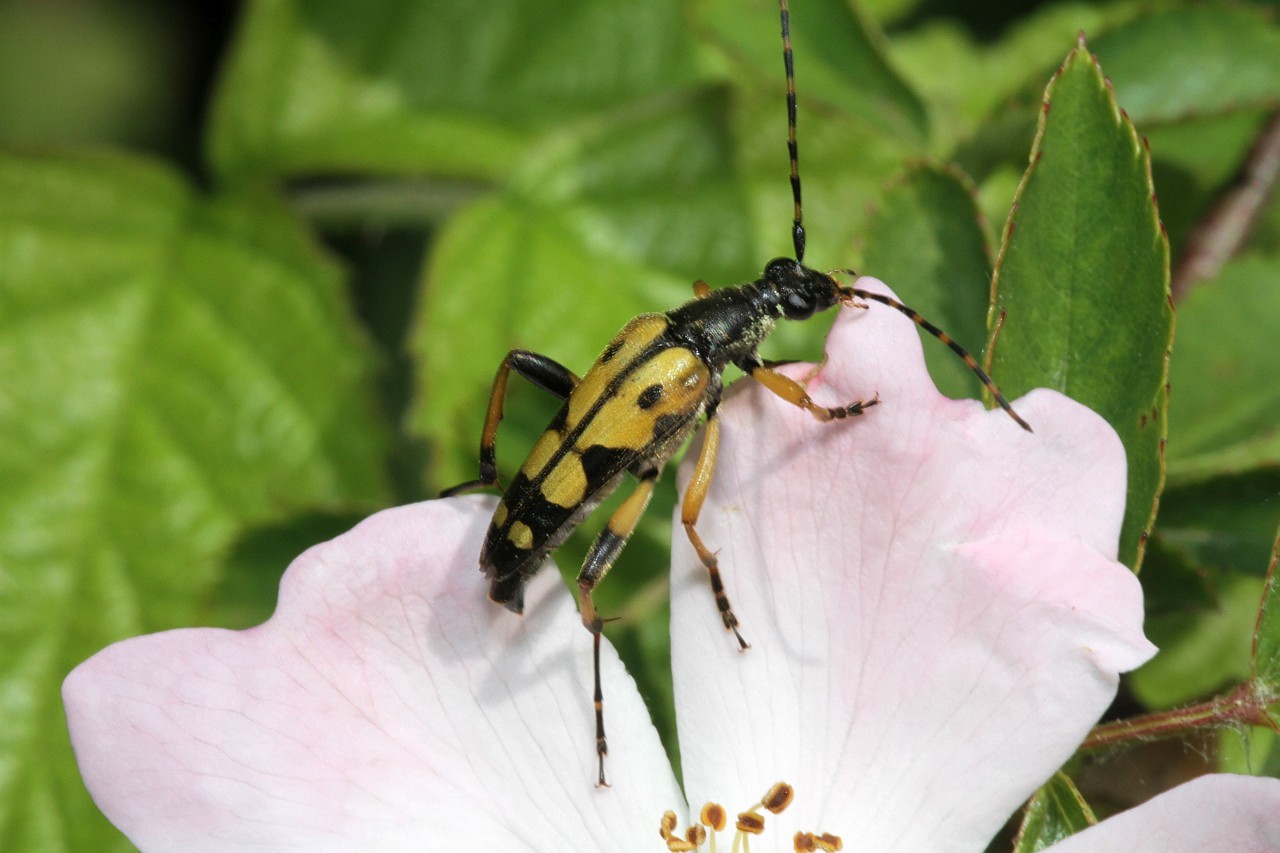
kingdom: Animalia
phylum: Arthropoda
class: Insecta
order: Coleoptera
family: Cerambycidae
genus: Rutpela
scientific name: Rutpela maculata
